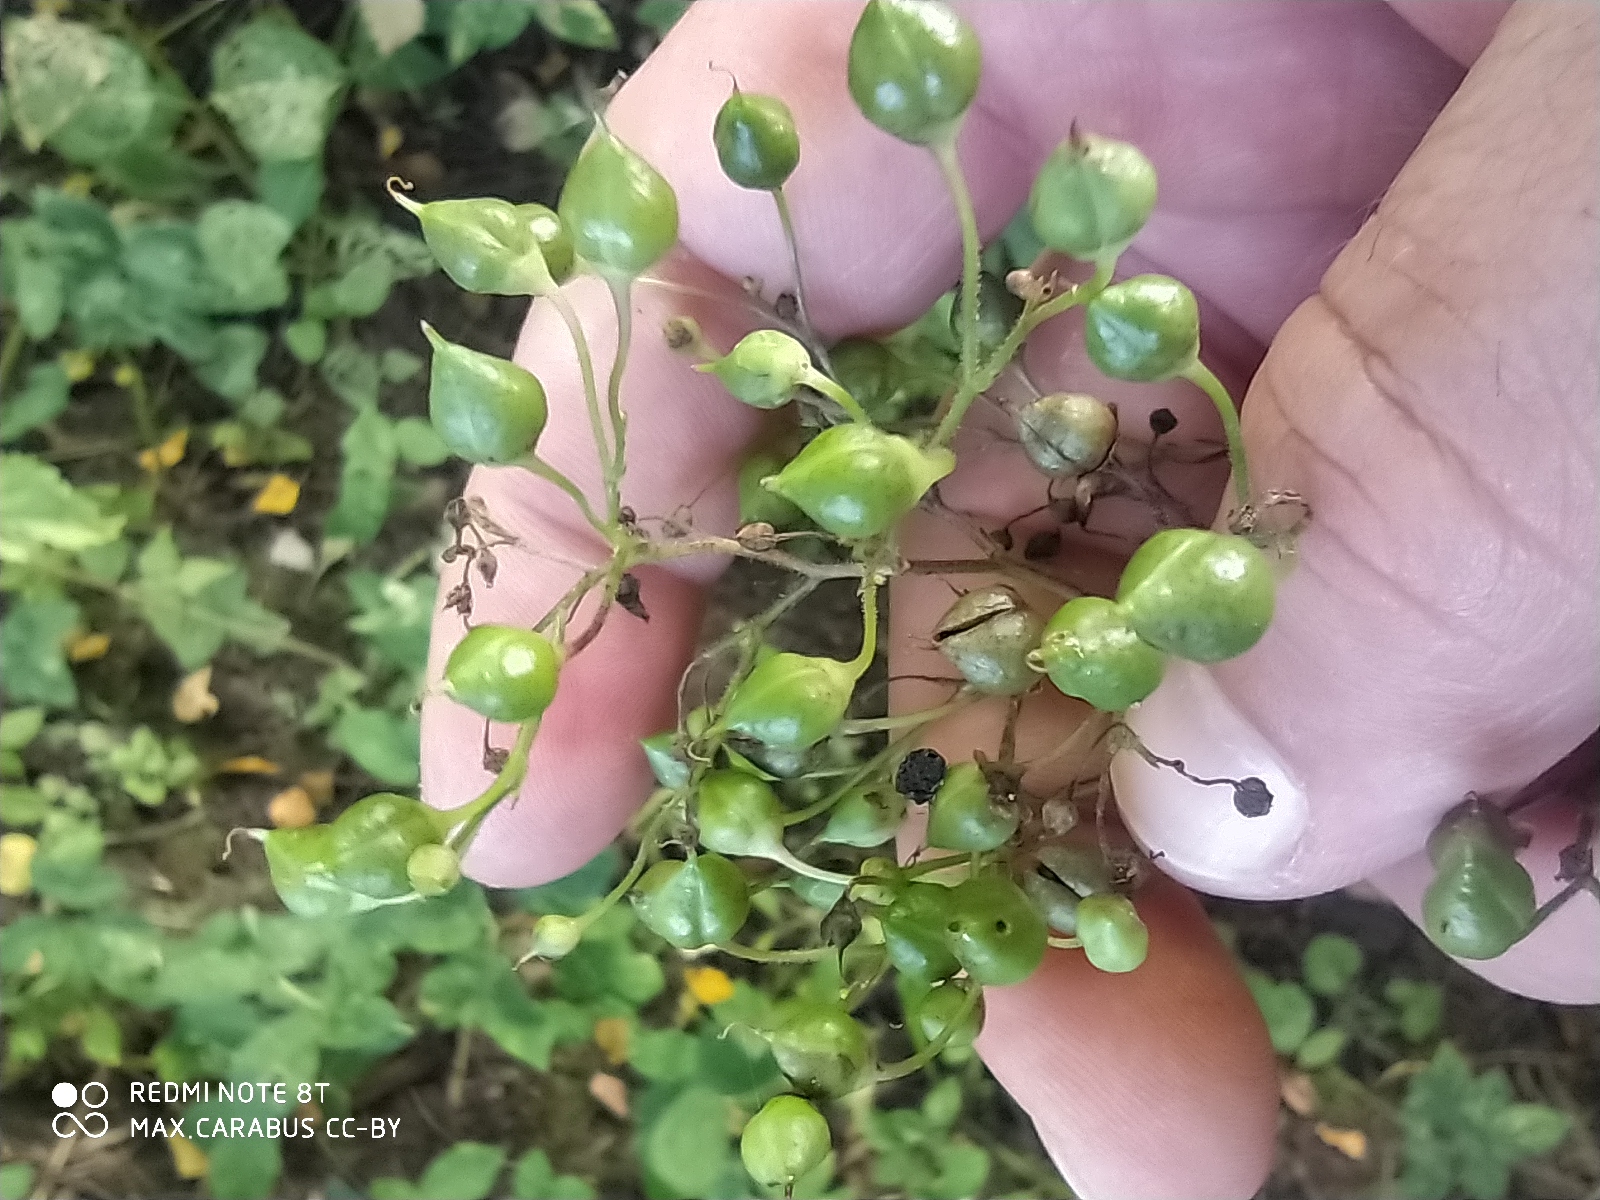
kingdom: Plantae
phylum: Tracheophyta
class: Magnoliopsida
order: Lamiales
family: Scrophulariaceae
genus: Scrophularia
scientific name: Scrophularia nodosa
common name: Common figwort
